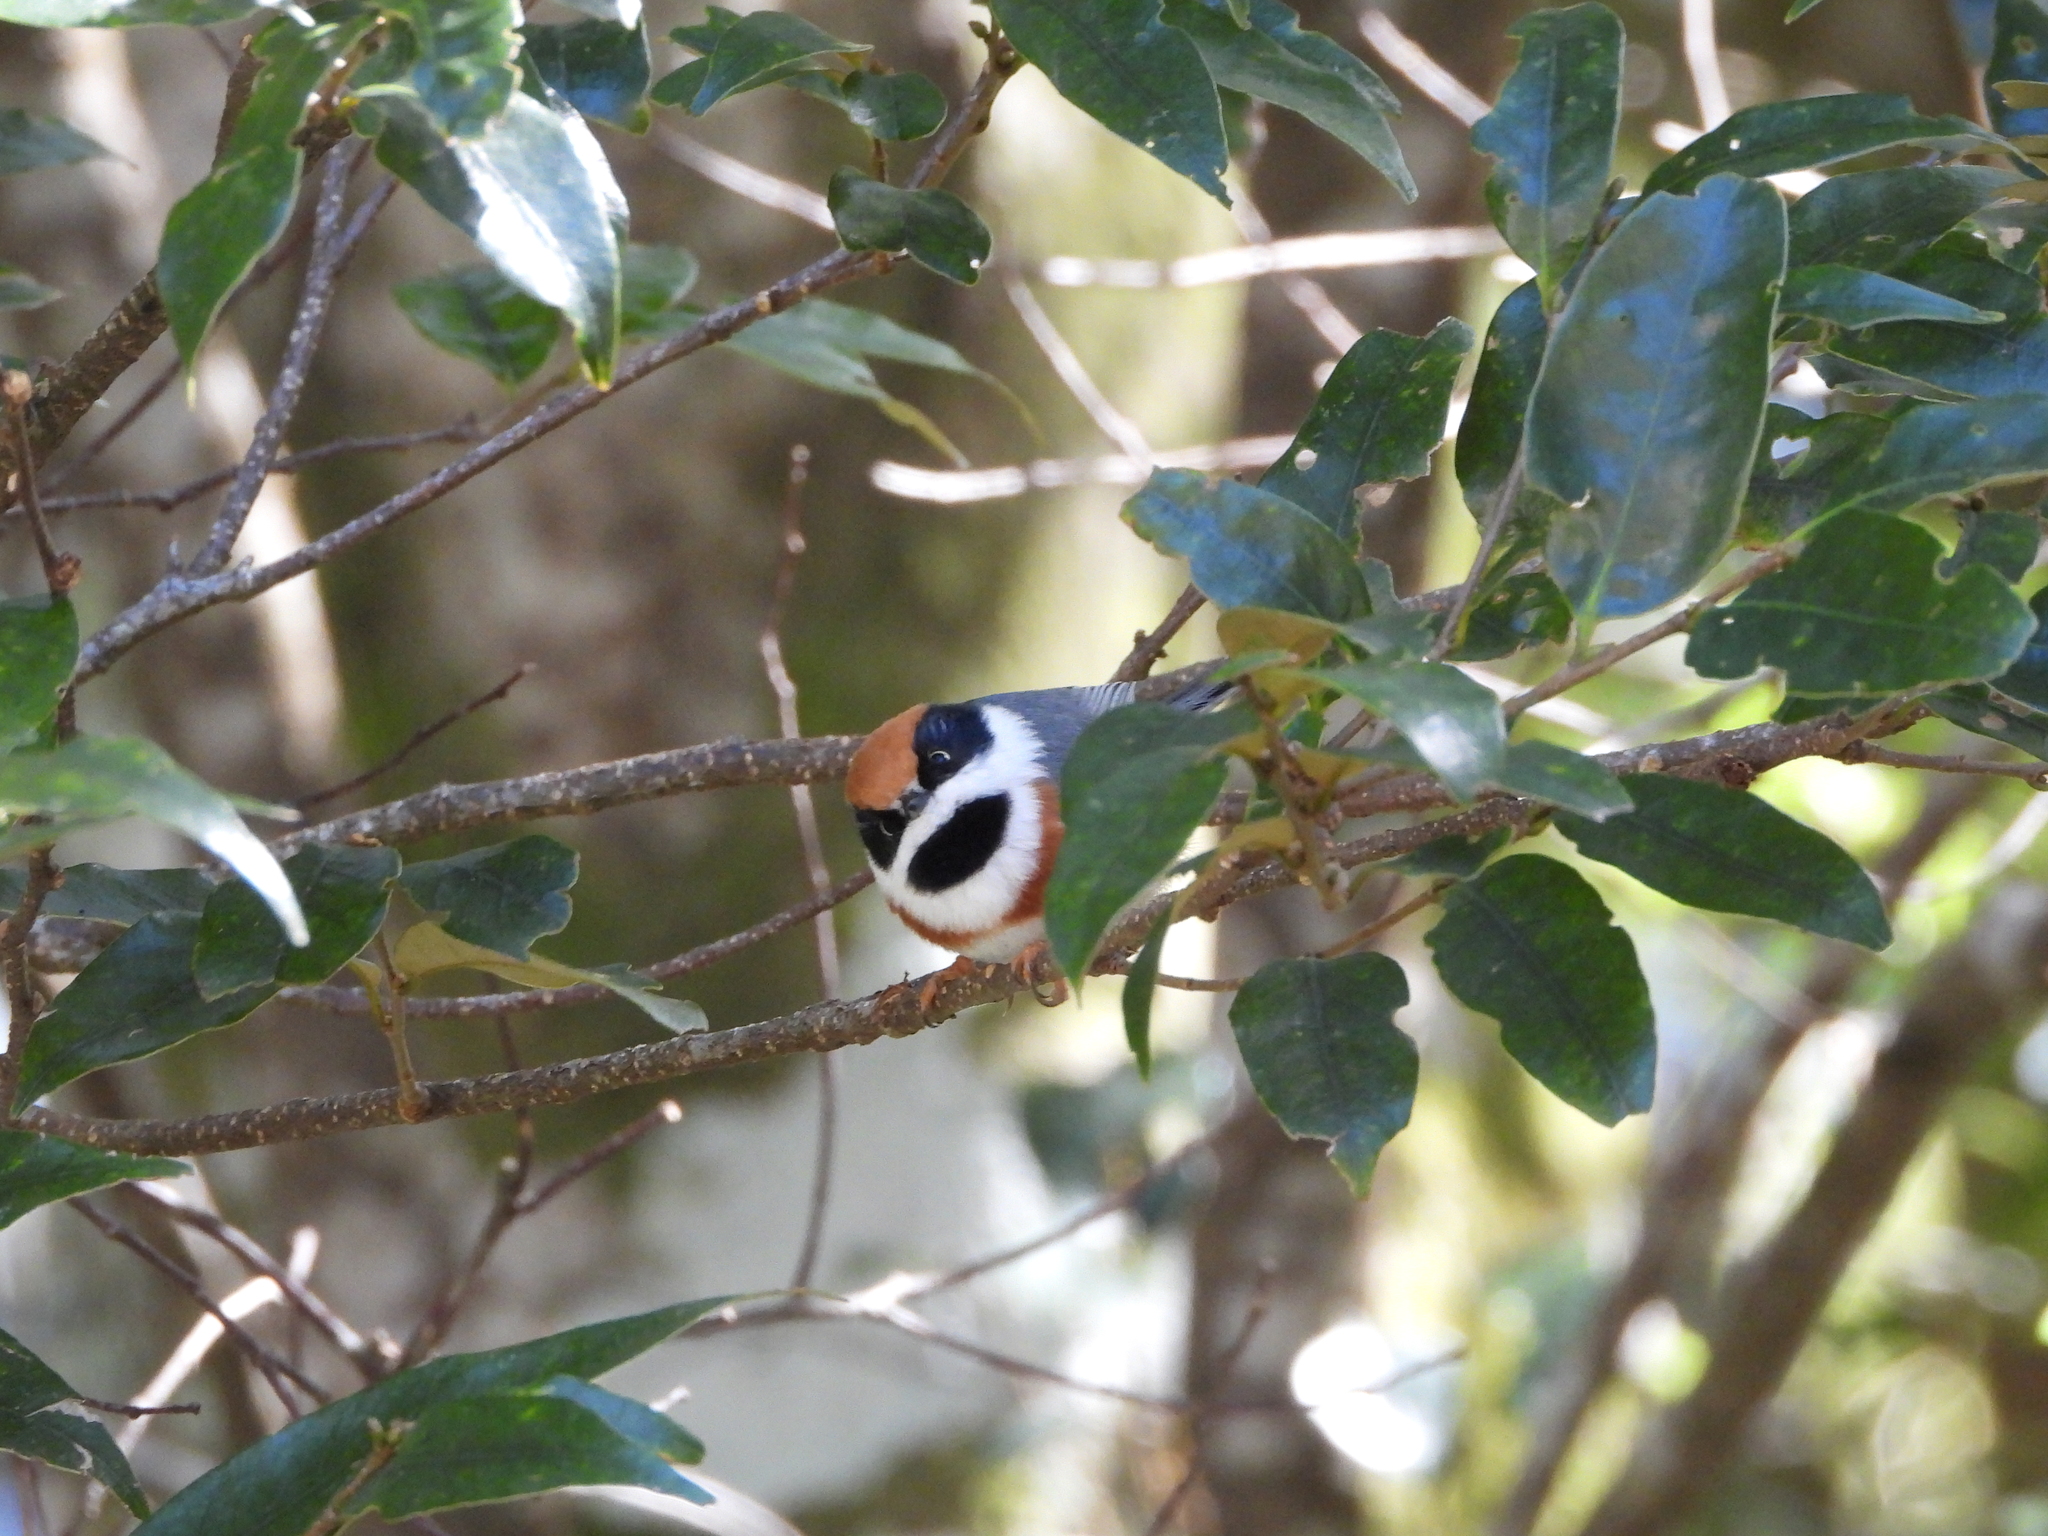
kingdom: Animalia
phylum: Chordata
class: Aves
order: Passeriformes
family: Aegithalidae
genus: Aegithalos
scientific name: Aegithalos concinnus
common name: Black-throated bushtit
